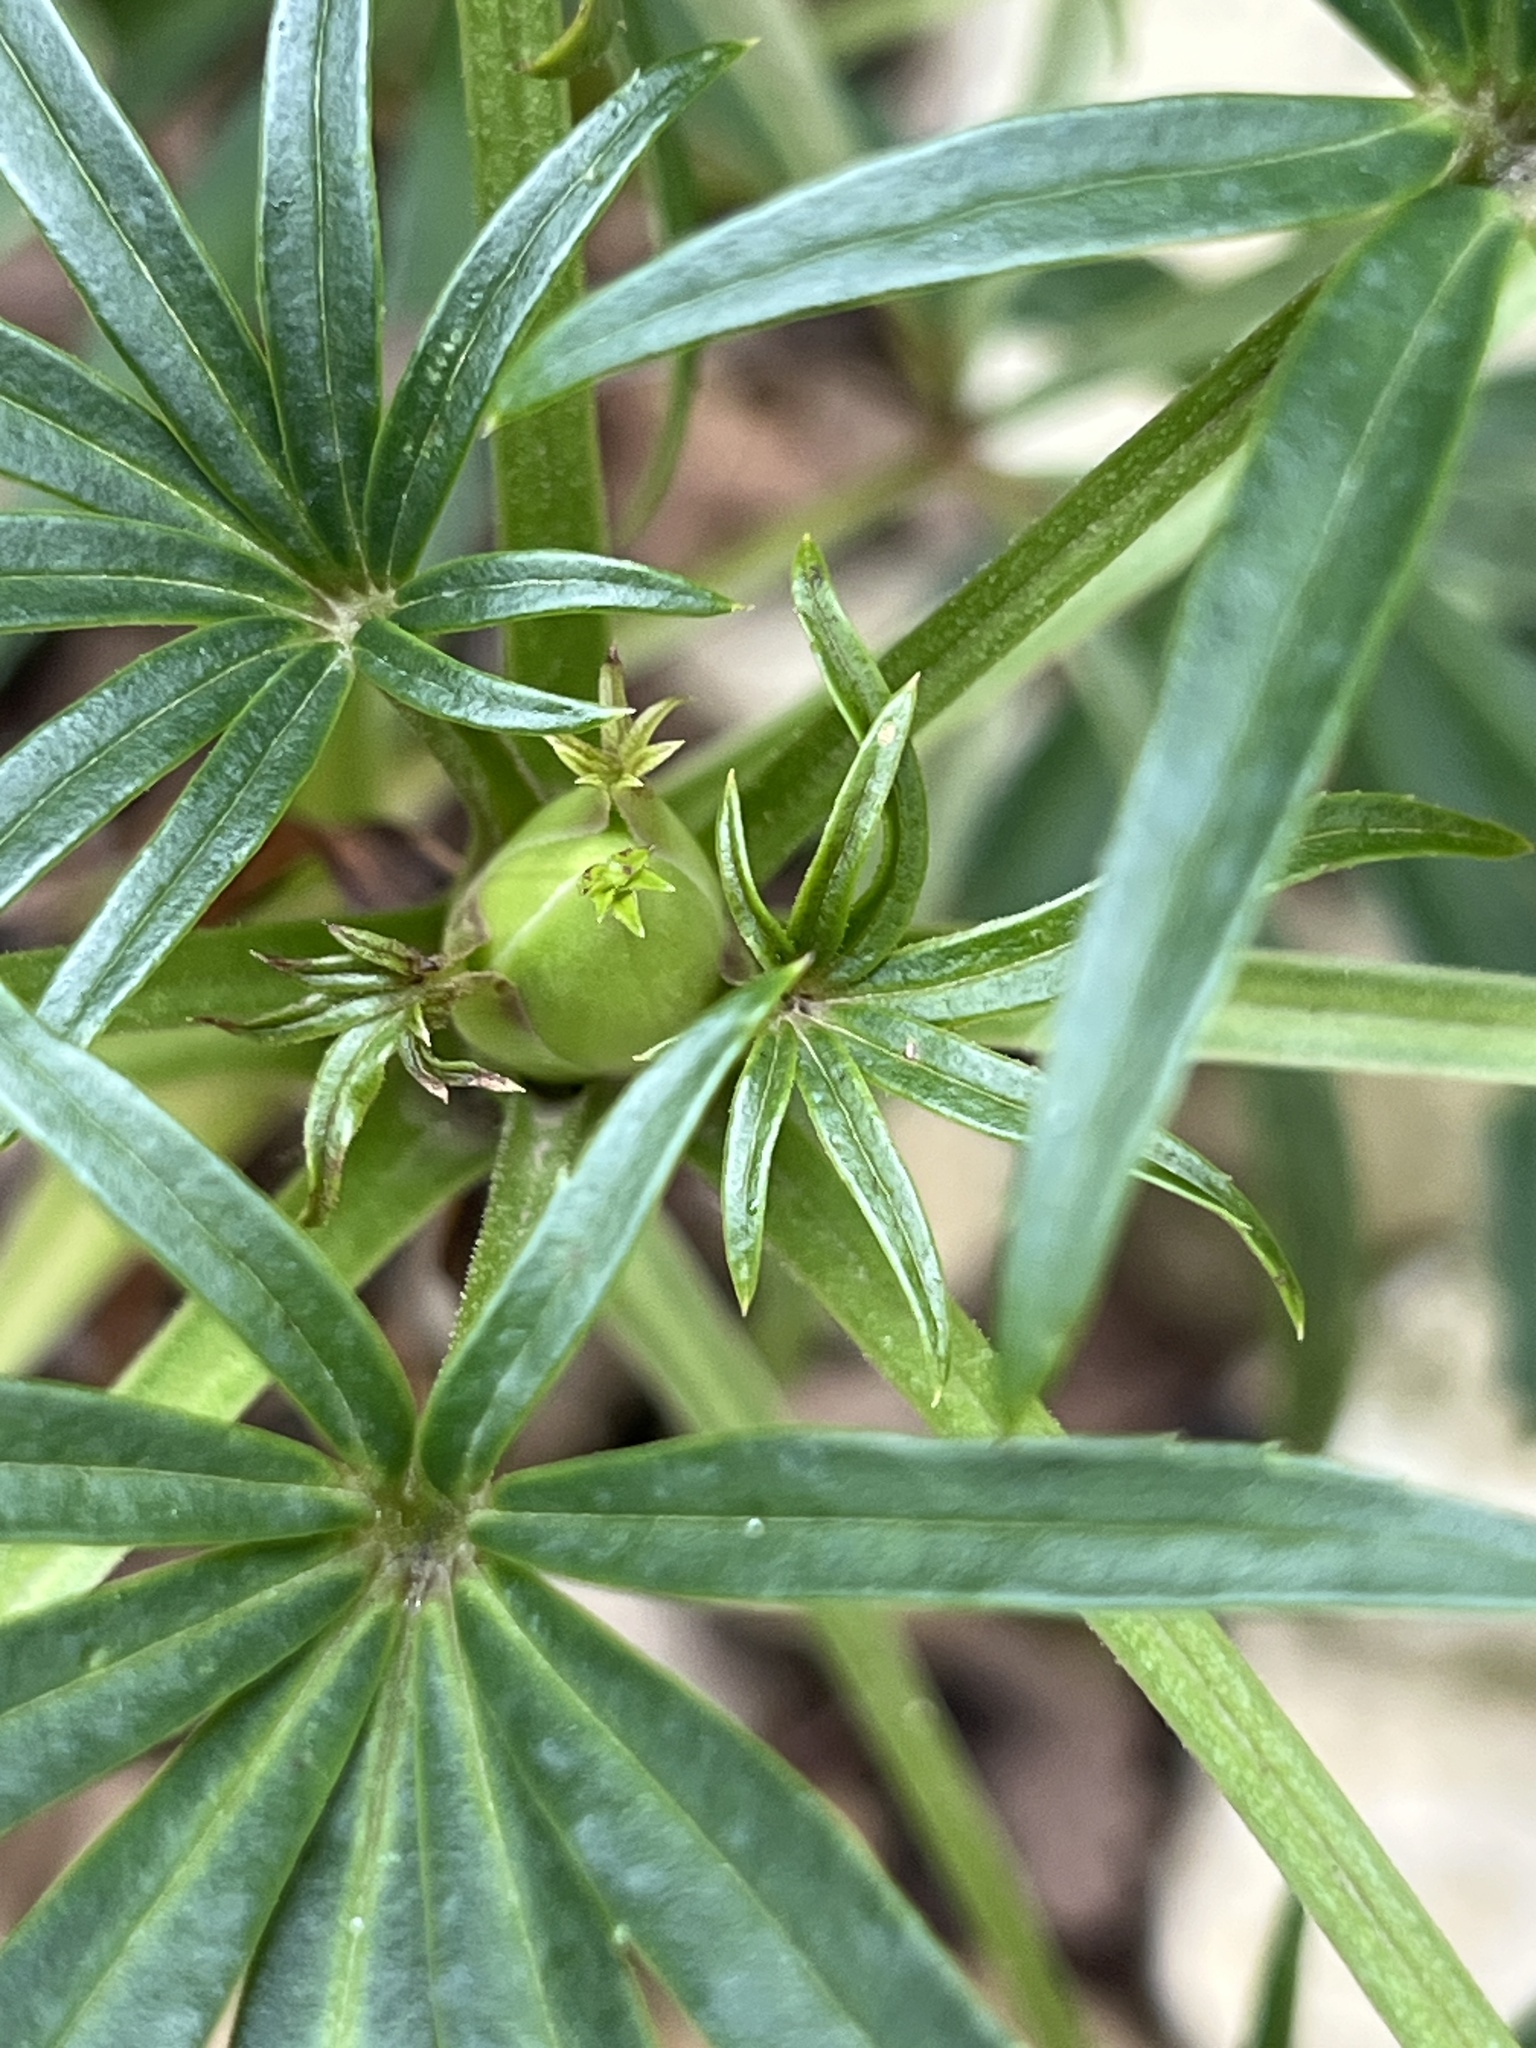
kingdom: Plantae
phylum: Tracheophyta
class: Magnoliopsida
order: Ranunculales
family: Ranunculaceae
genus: Helleborus
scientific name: Helleborus foetidus
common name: Stinking hellebore
